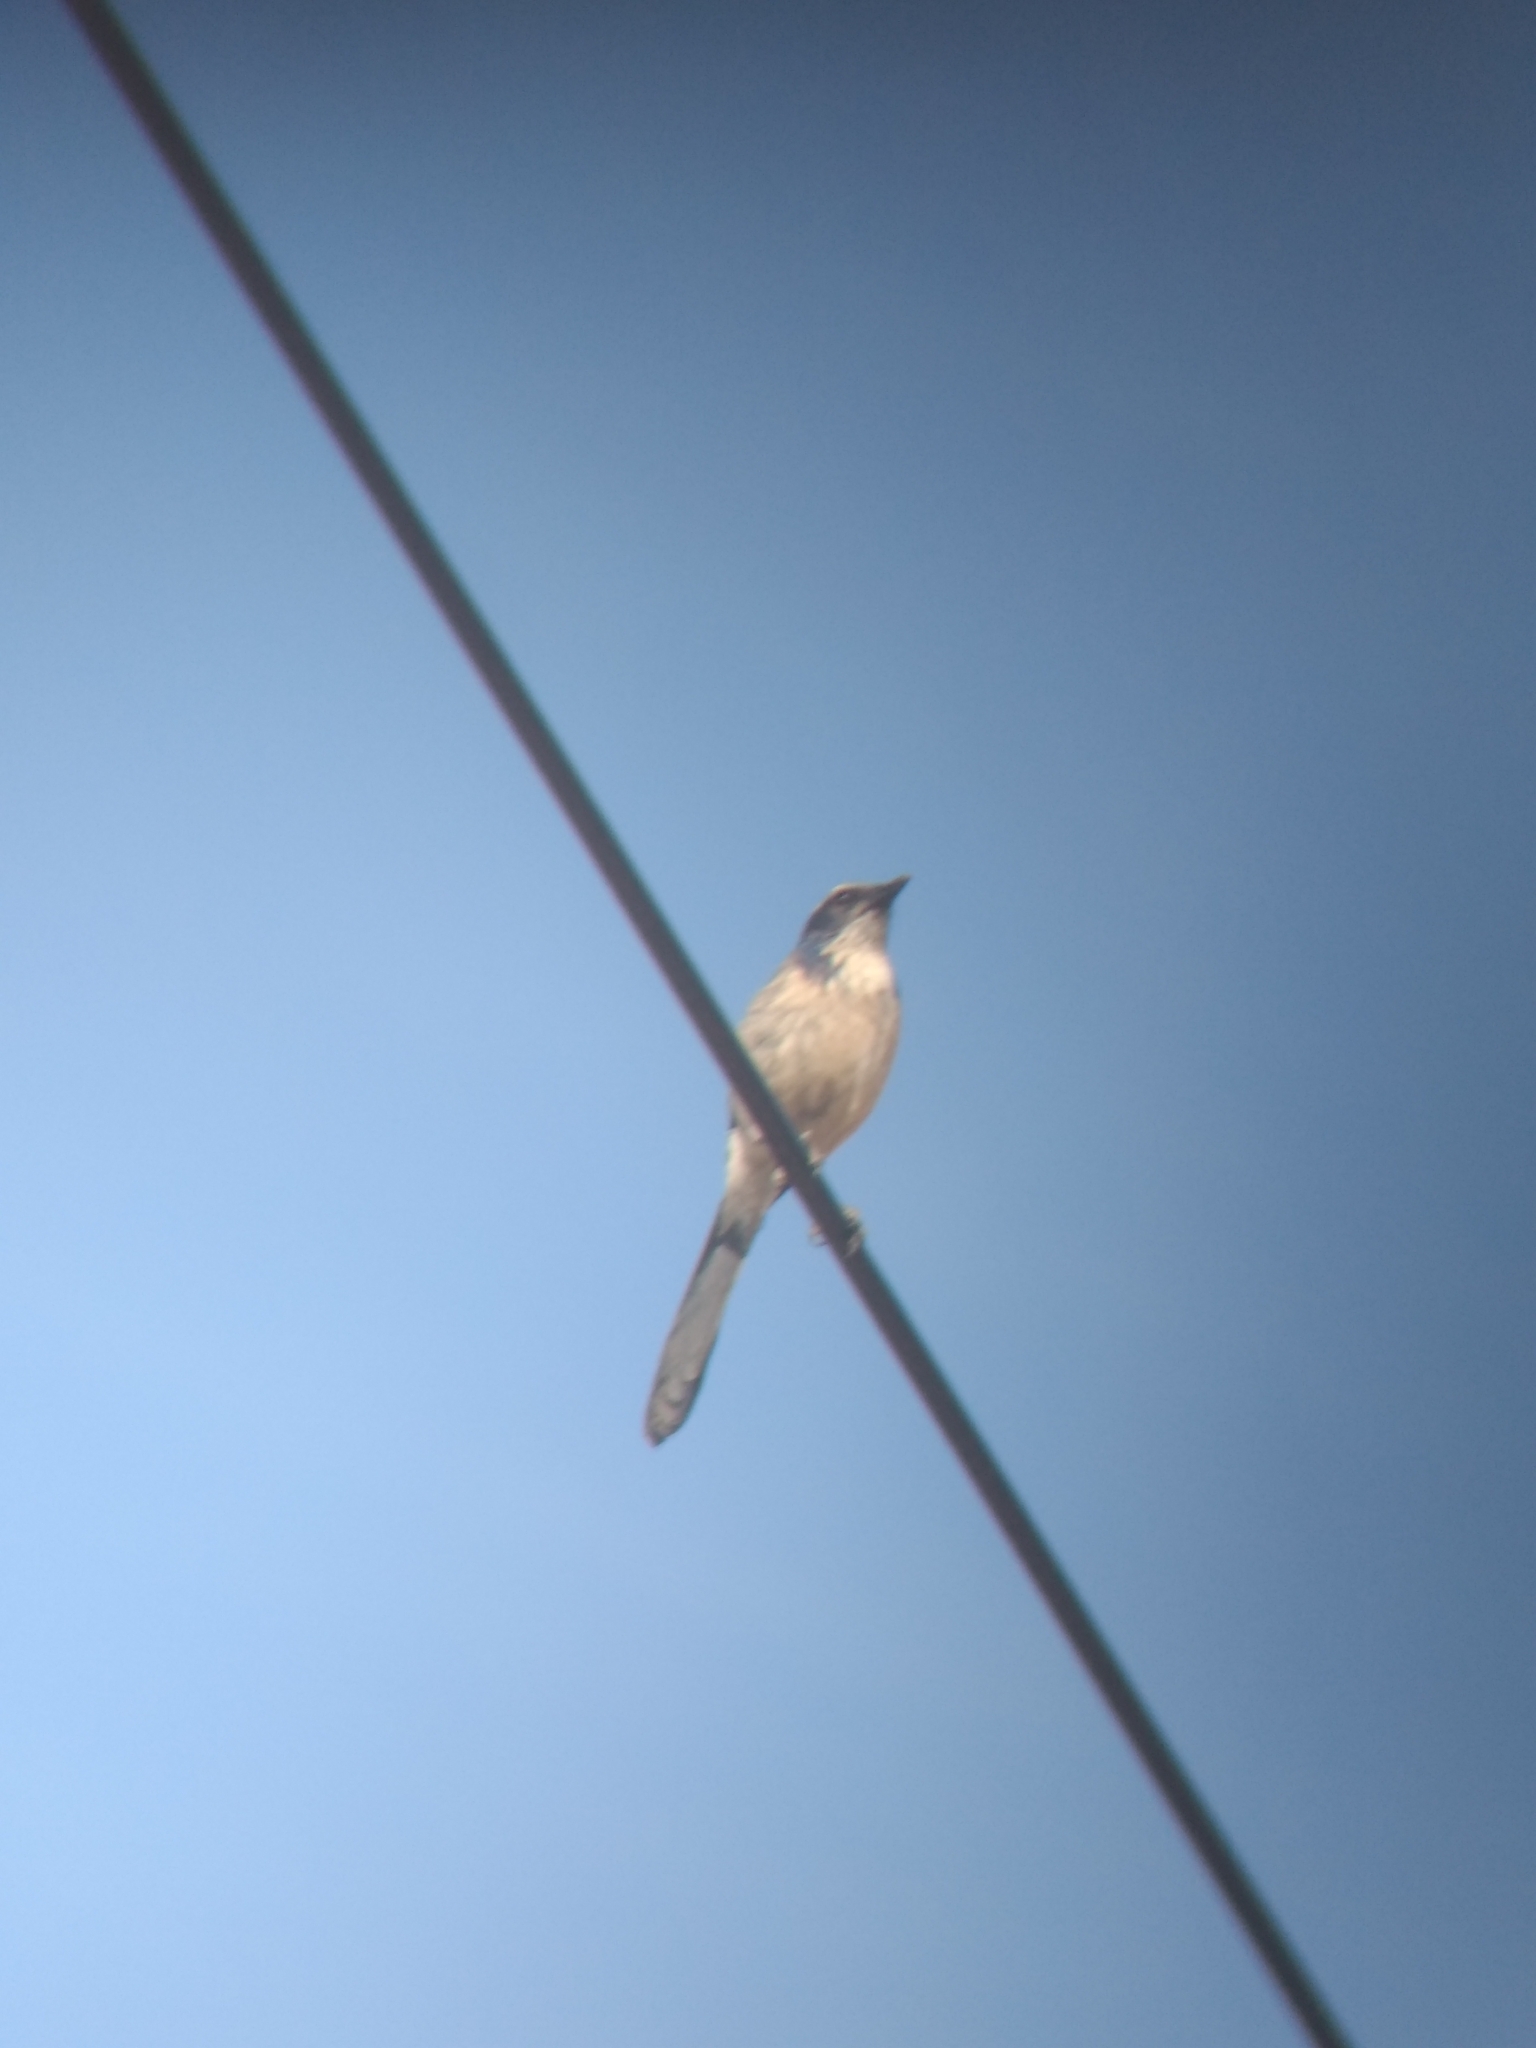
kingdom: Animalia
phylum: Chordata
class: Aves
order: Passeriformes
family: Corvidae
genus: Aphelocoma
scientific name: Aphelocoma californica
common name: California scrub-jay
